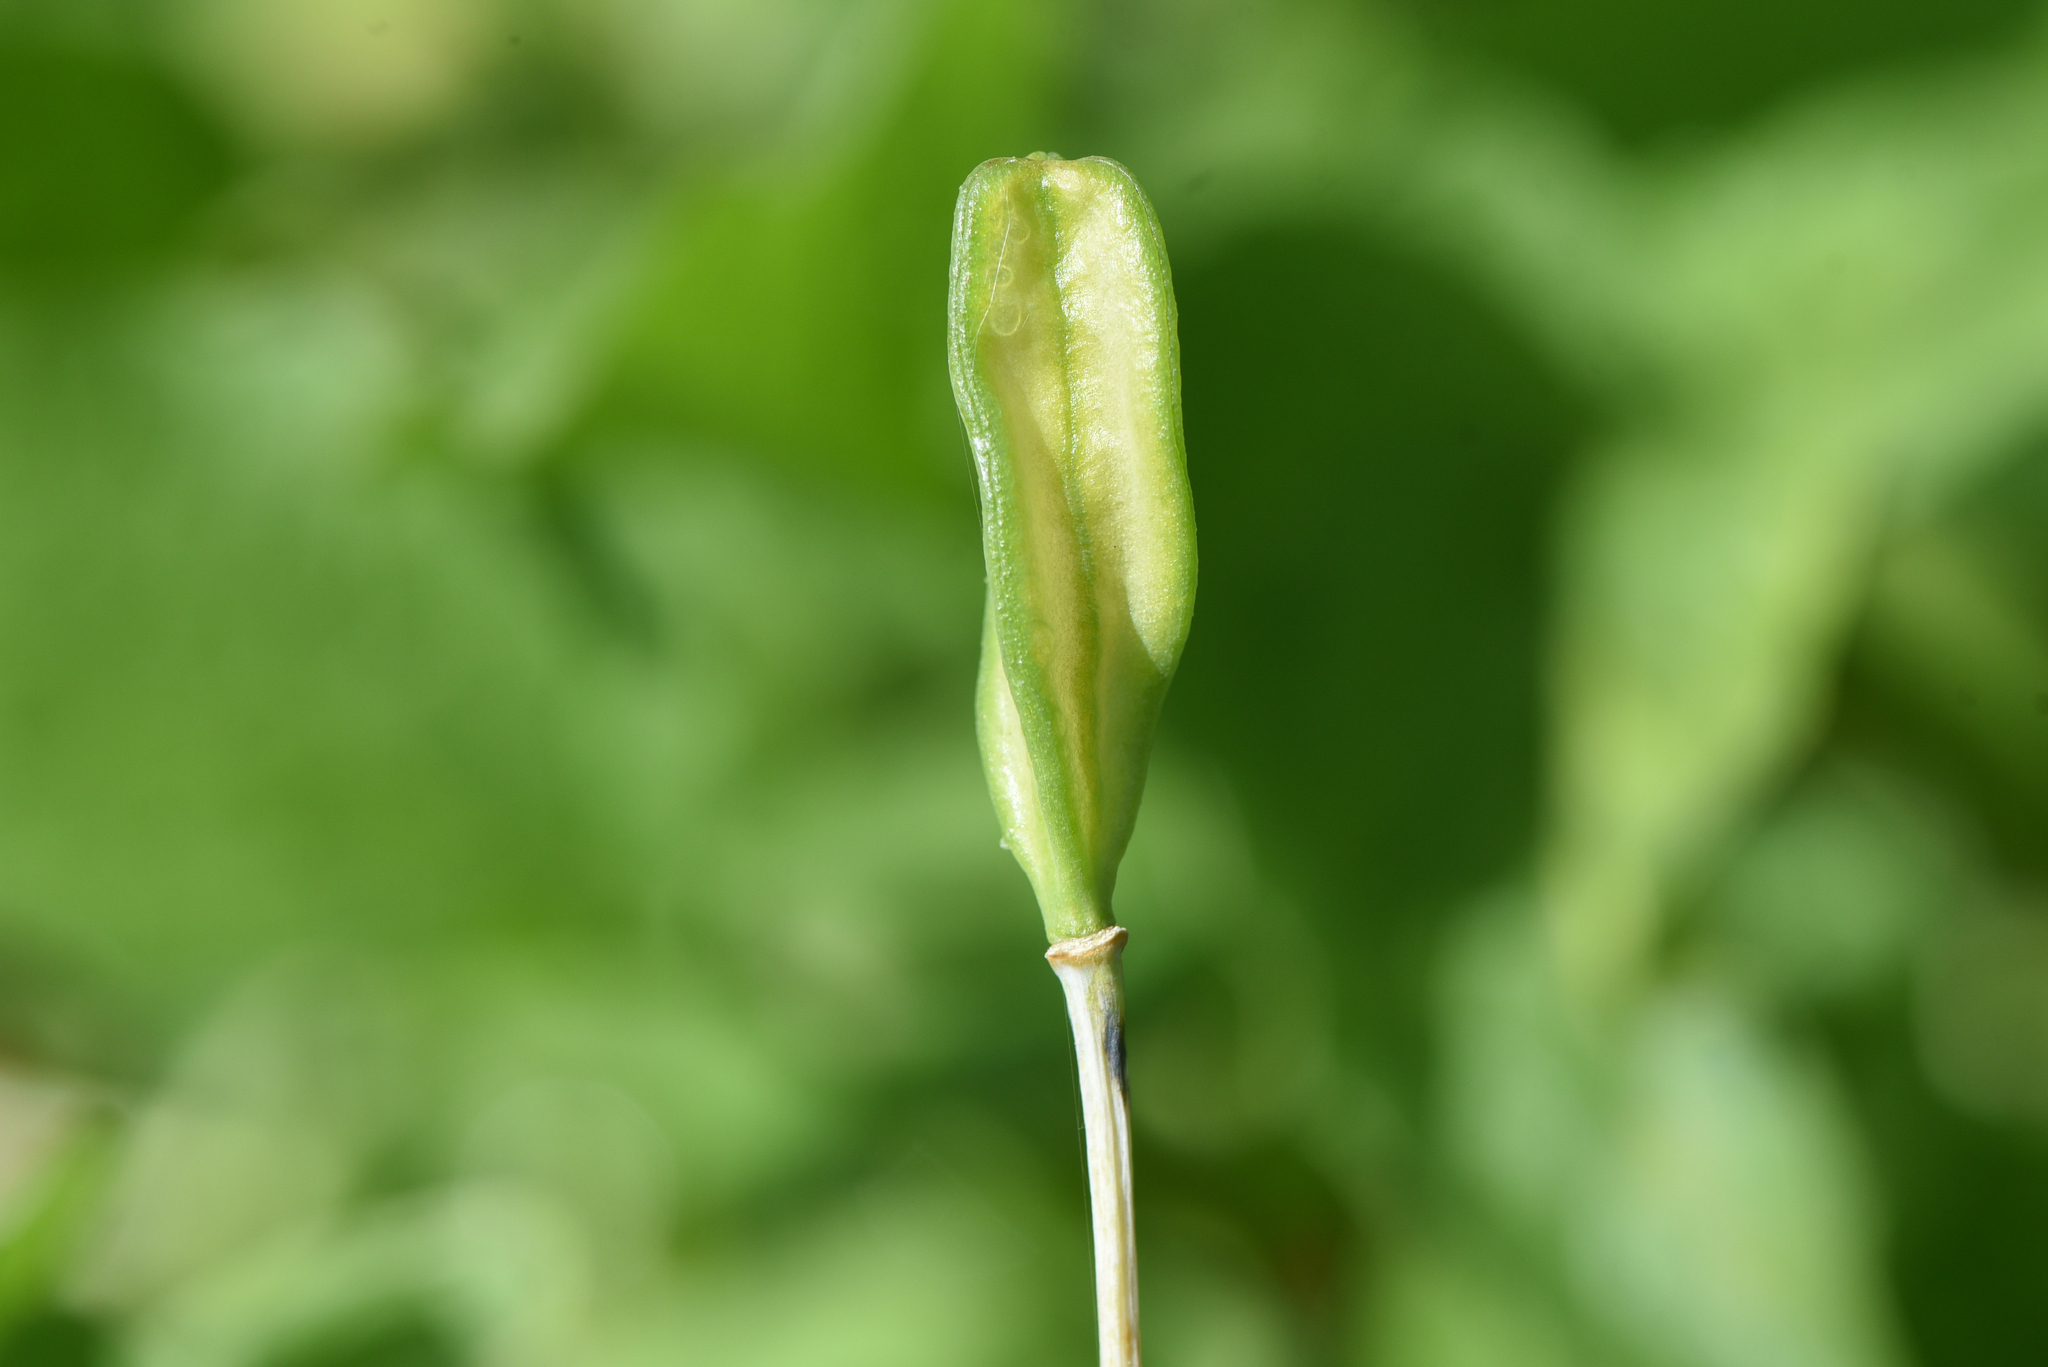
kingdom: Plantae
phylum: Tracheophyta
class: Liliopsida
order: Liliales
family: Liliaceae
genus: Lilium
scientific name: Lilium columbianum
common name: Columbia lily
